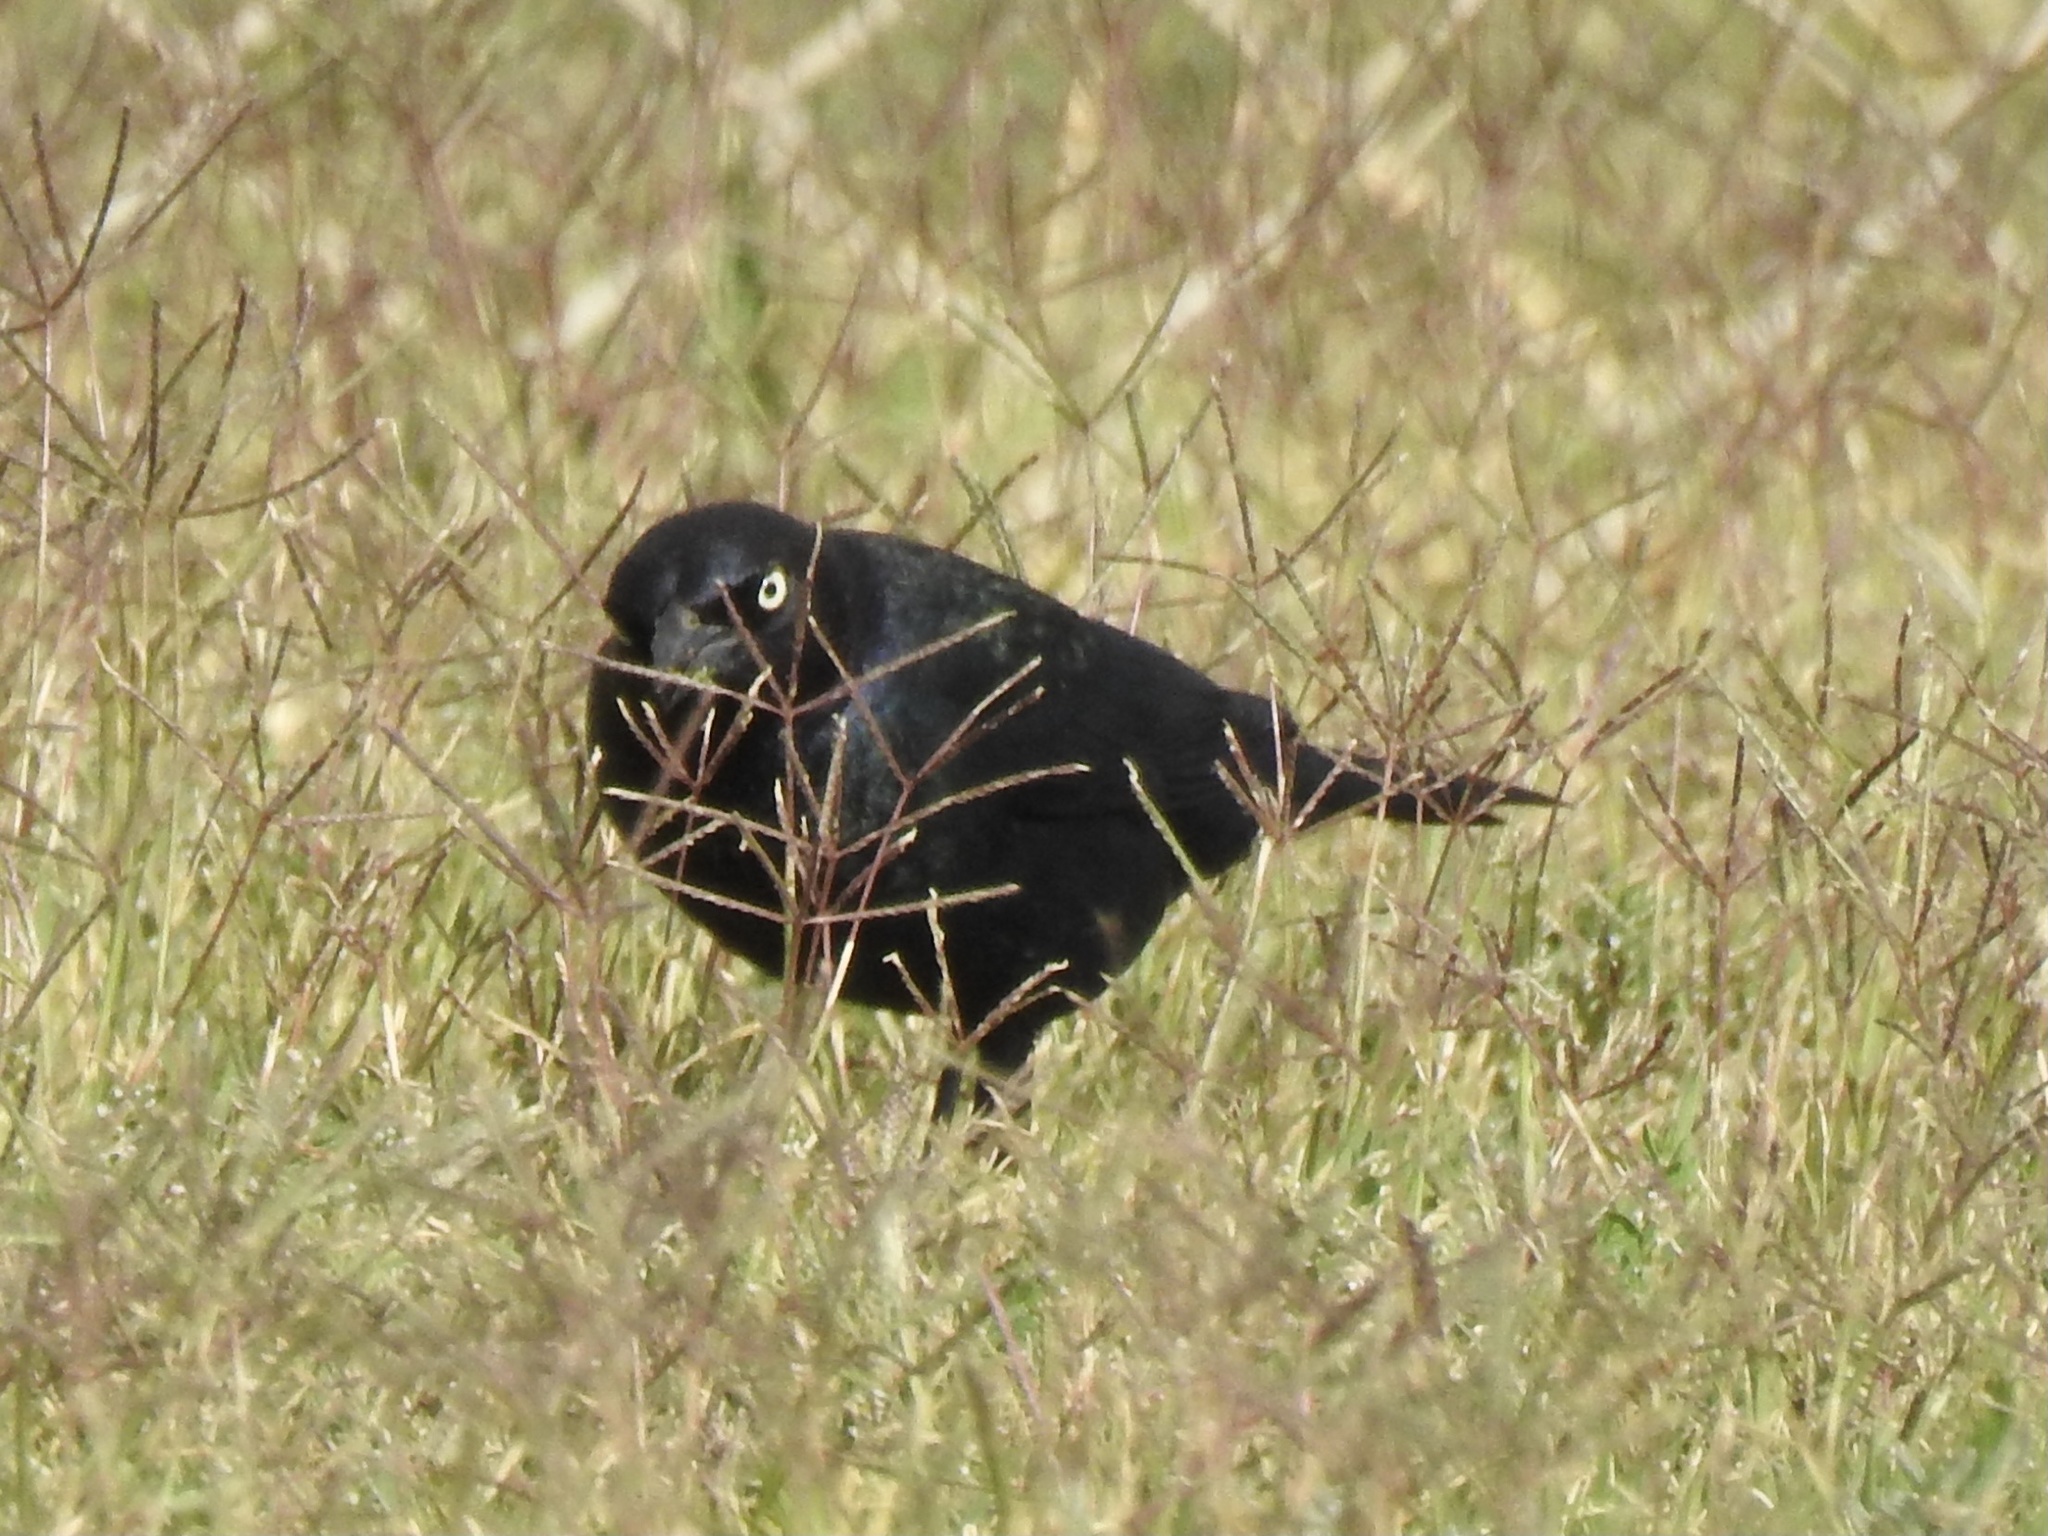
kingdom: Animalia
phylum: Chordata
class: Aves
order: Passeriformes
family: Icteridae
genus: Euphagus
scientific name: Euphagus cyanocephalus
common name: Brewer's blackbird
